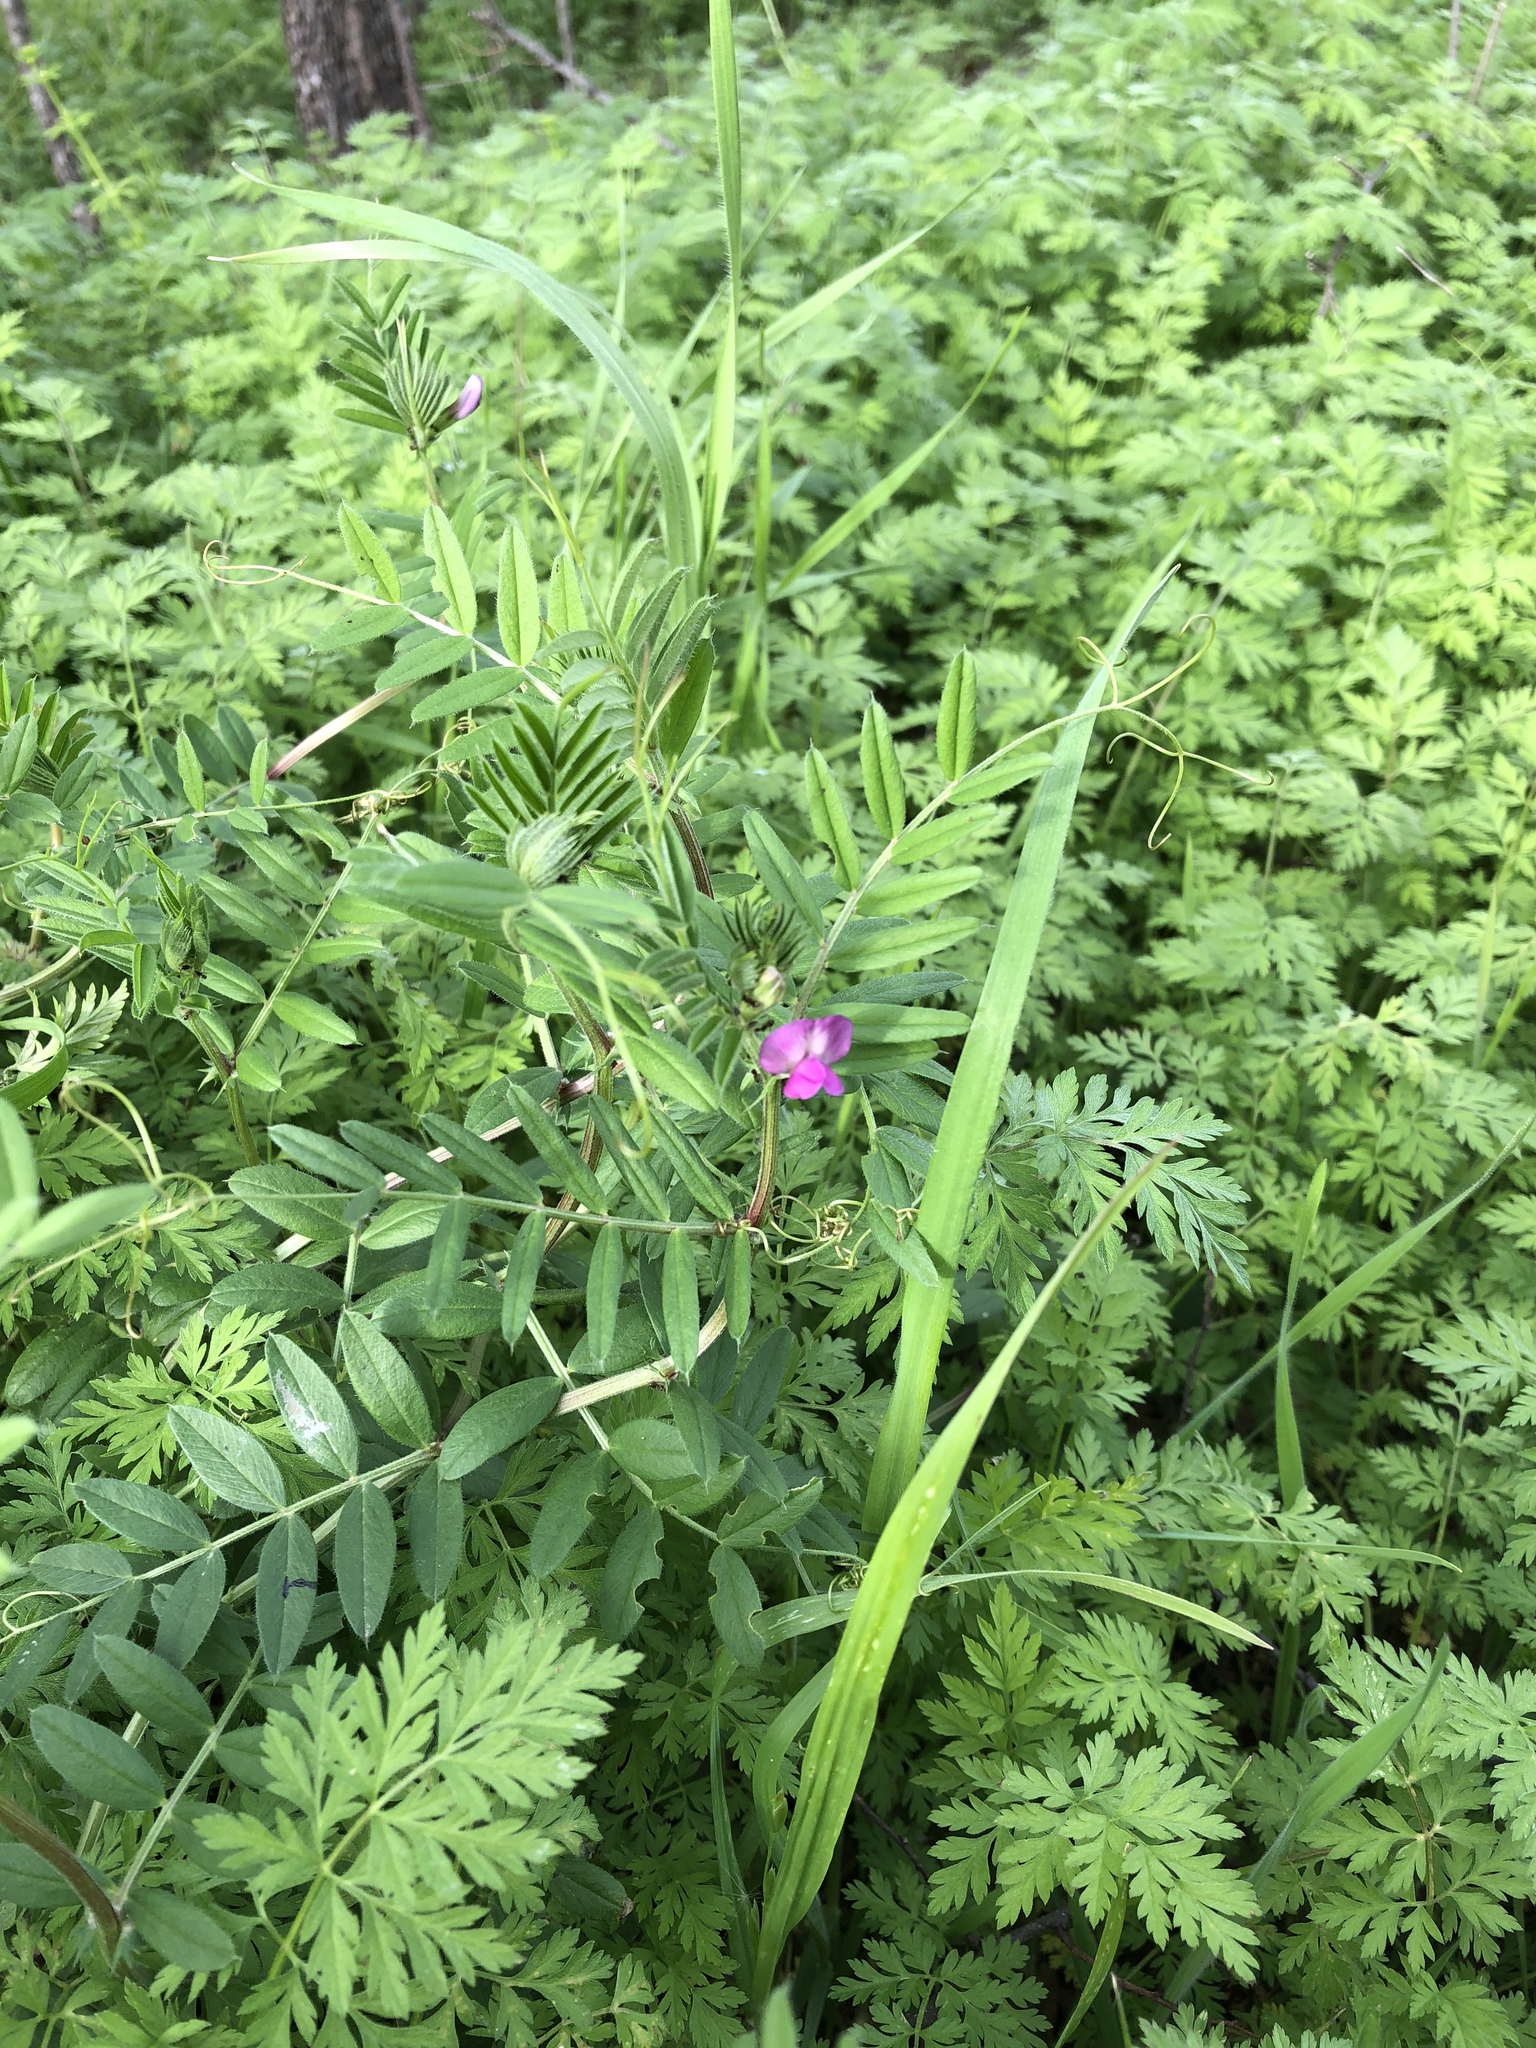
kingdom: Plantae
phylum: Tracheophyta
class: Magnoliopsida
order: Fabales
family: Fabaceae
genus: Vicia
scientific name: Vicia sativa
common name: Garden vetch
